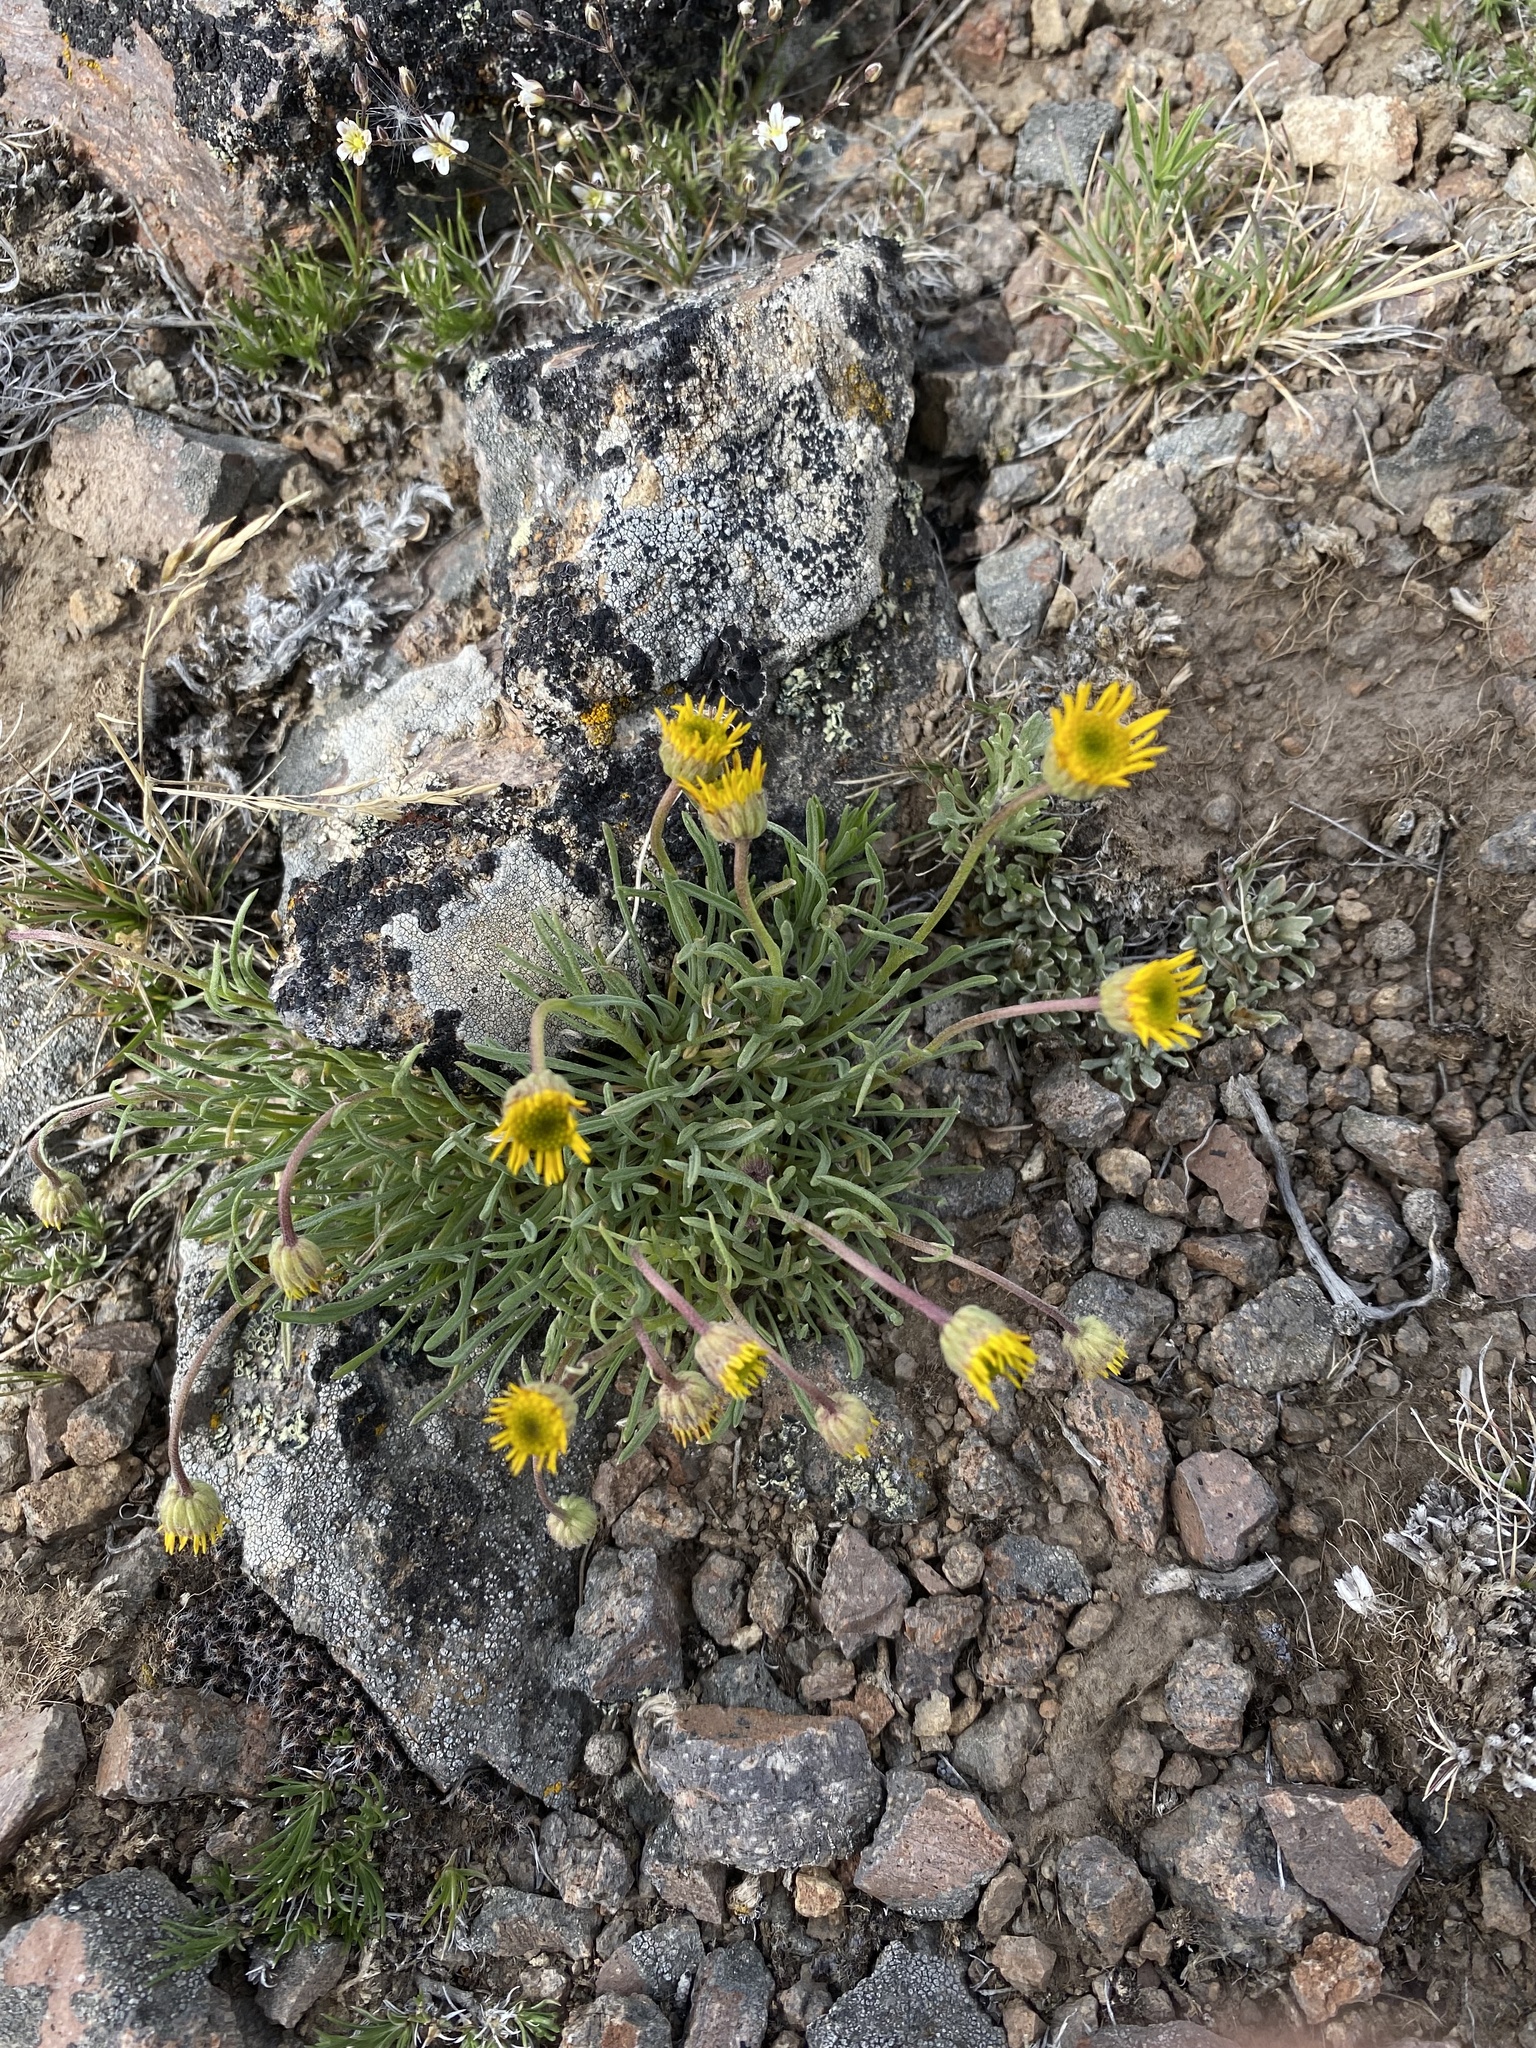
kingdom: Plantae
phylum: Tracheophyta
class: Magnoliopsida
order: Asterales
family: Asteraceae
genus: Erigeron
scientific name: Erigeron linearis
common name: Desert yellow fleabane
